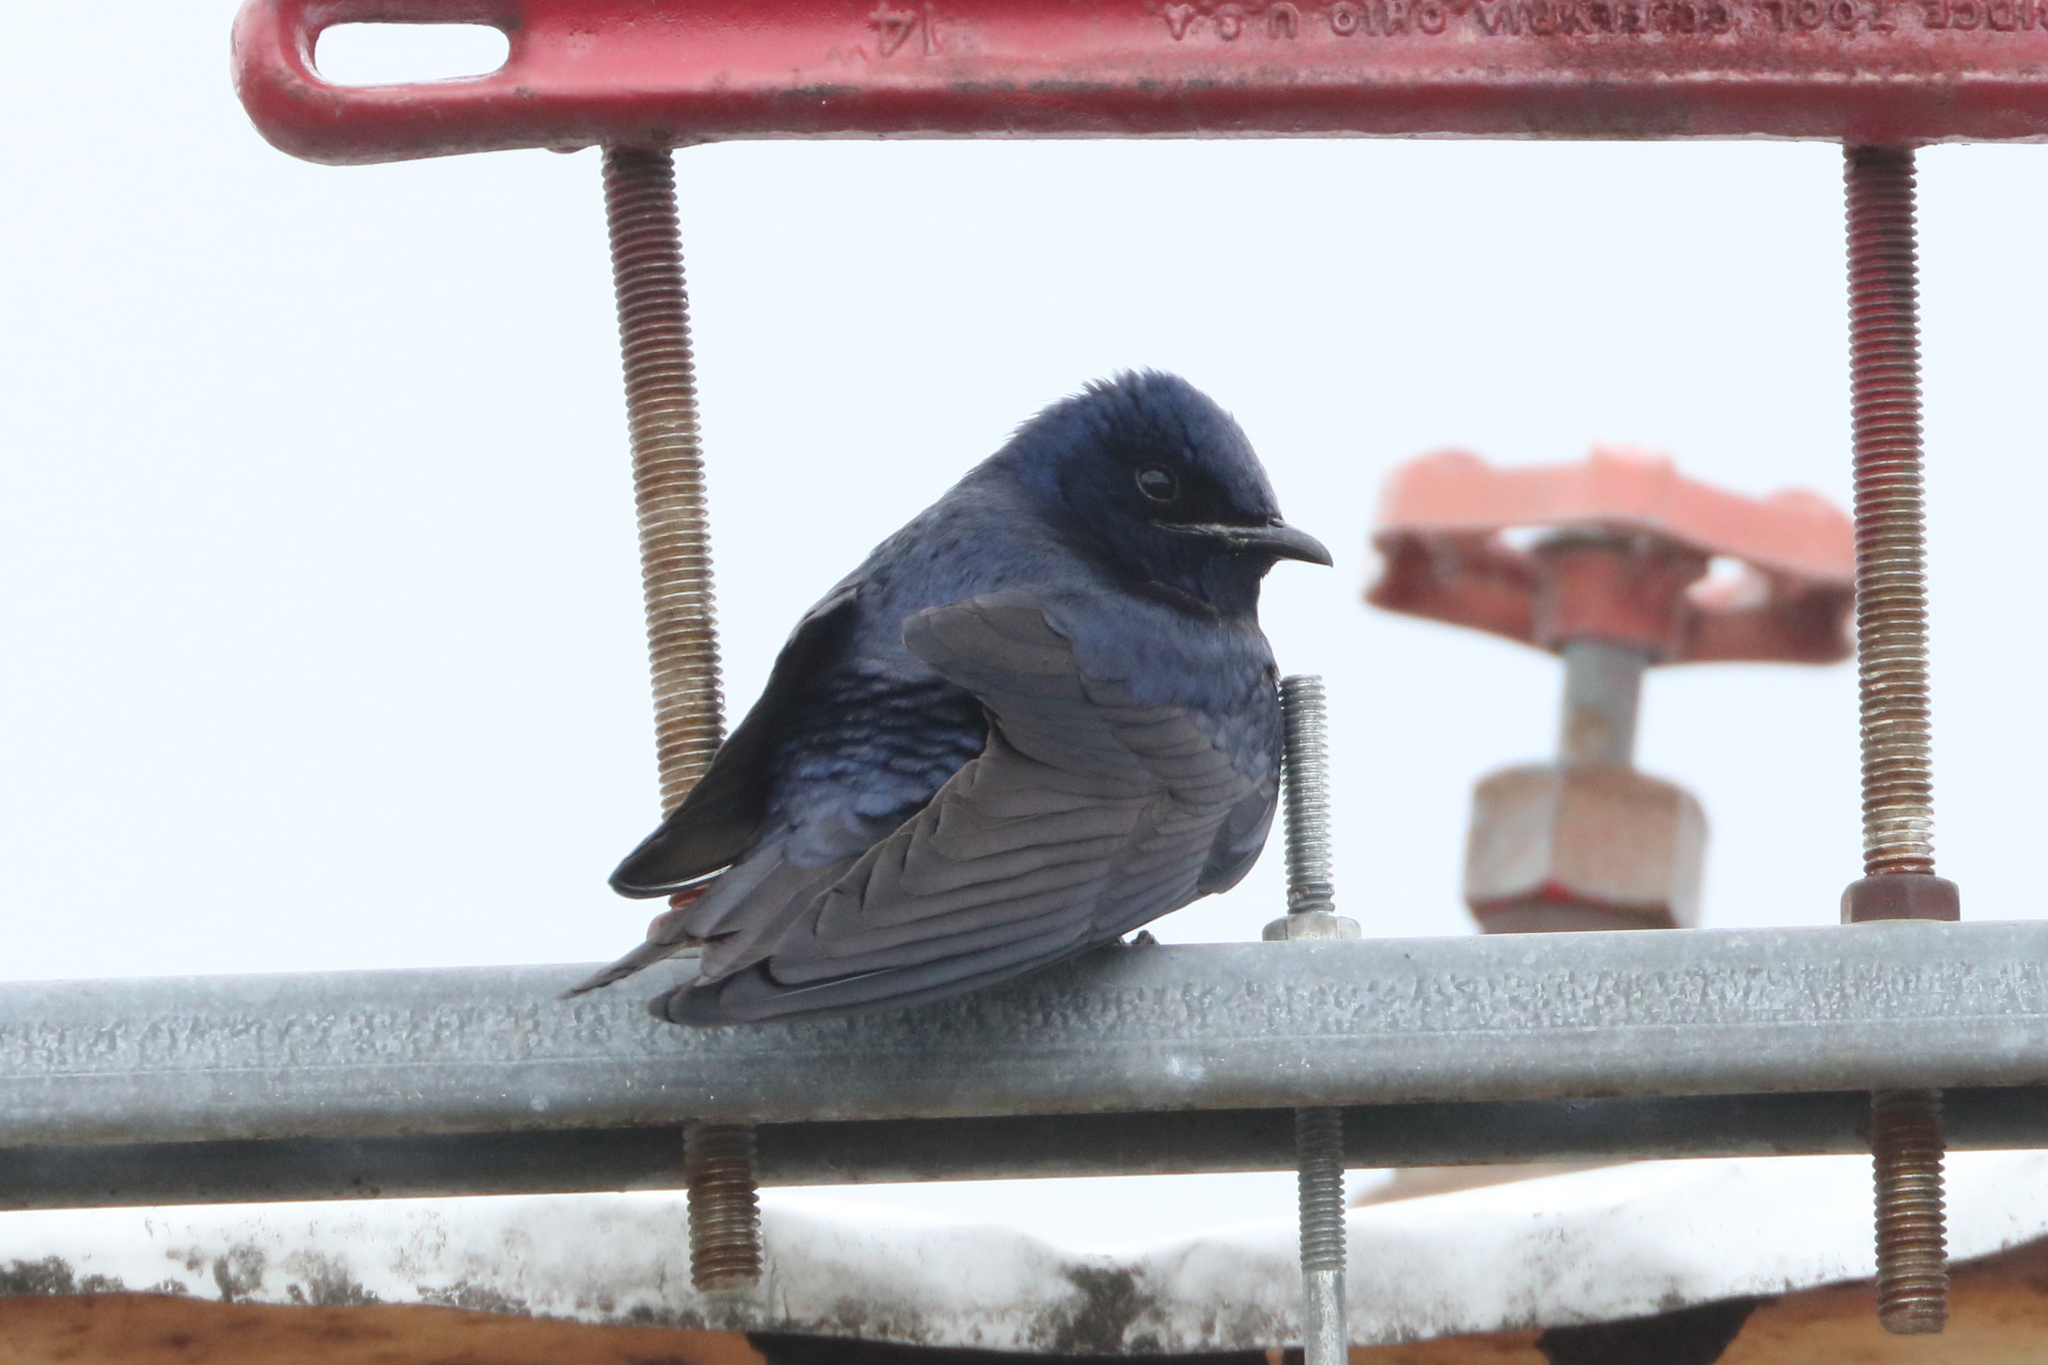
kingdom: Animalia
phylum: Chordata
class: Aves
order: Passeriformes
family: Hirundinidae
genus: Progne
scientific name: Progne subis
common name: Purple martin
